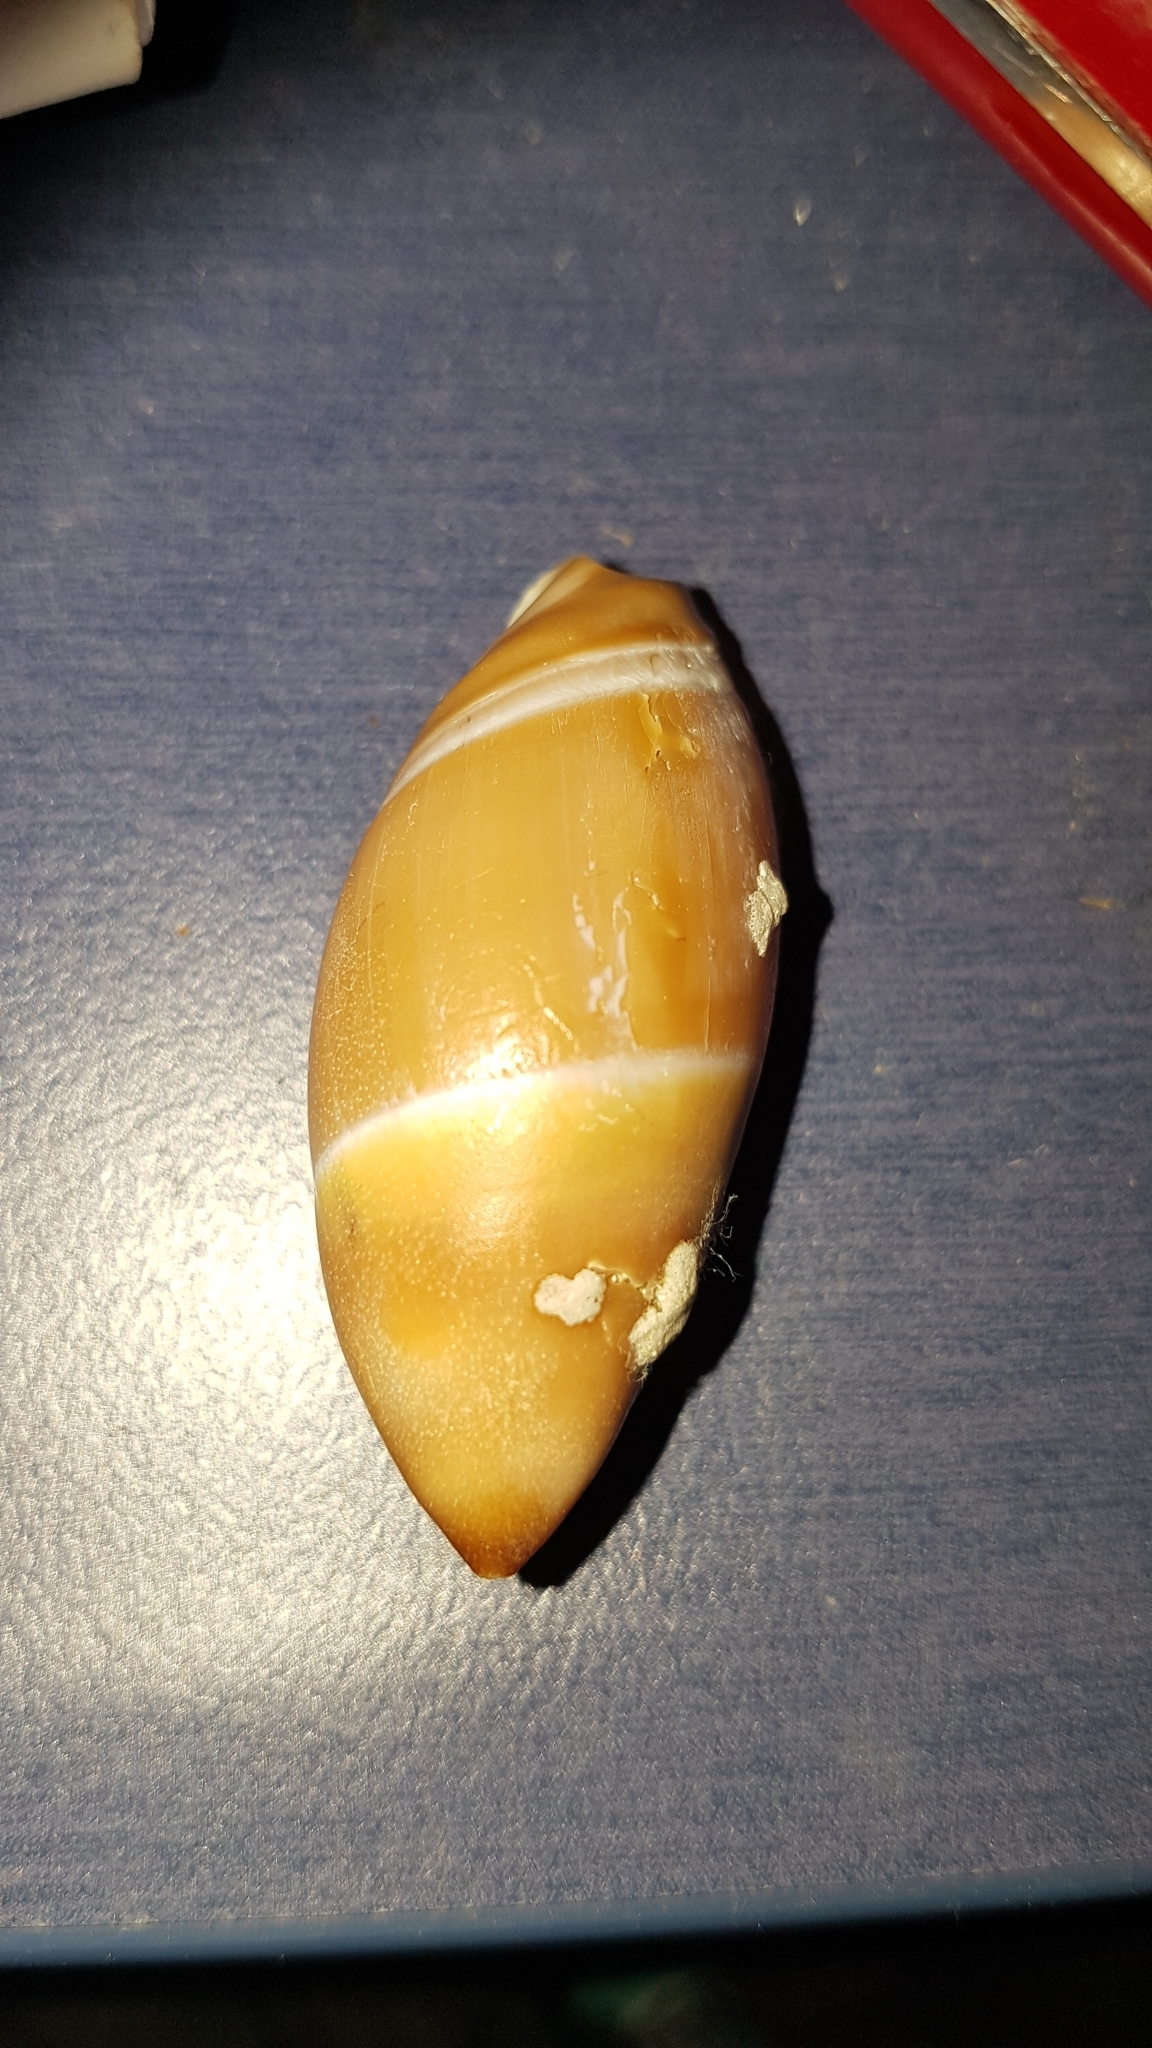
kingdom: Animalia
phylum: Mollusca
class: Gastropoda
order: Neogastropoda
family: Ancillariidae
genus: Amalda
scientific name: Amalda mucronata
